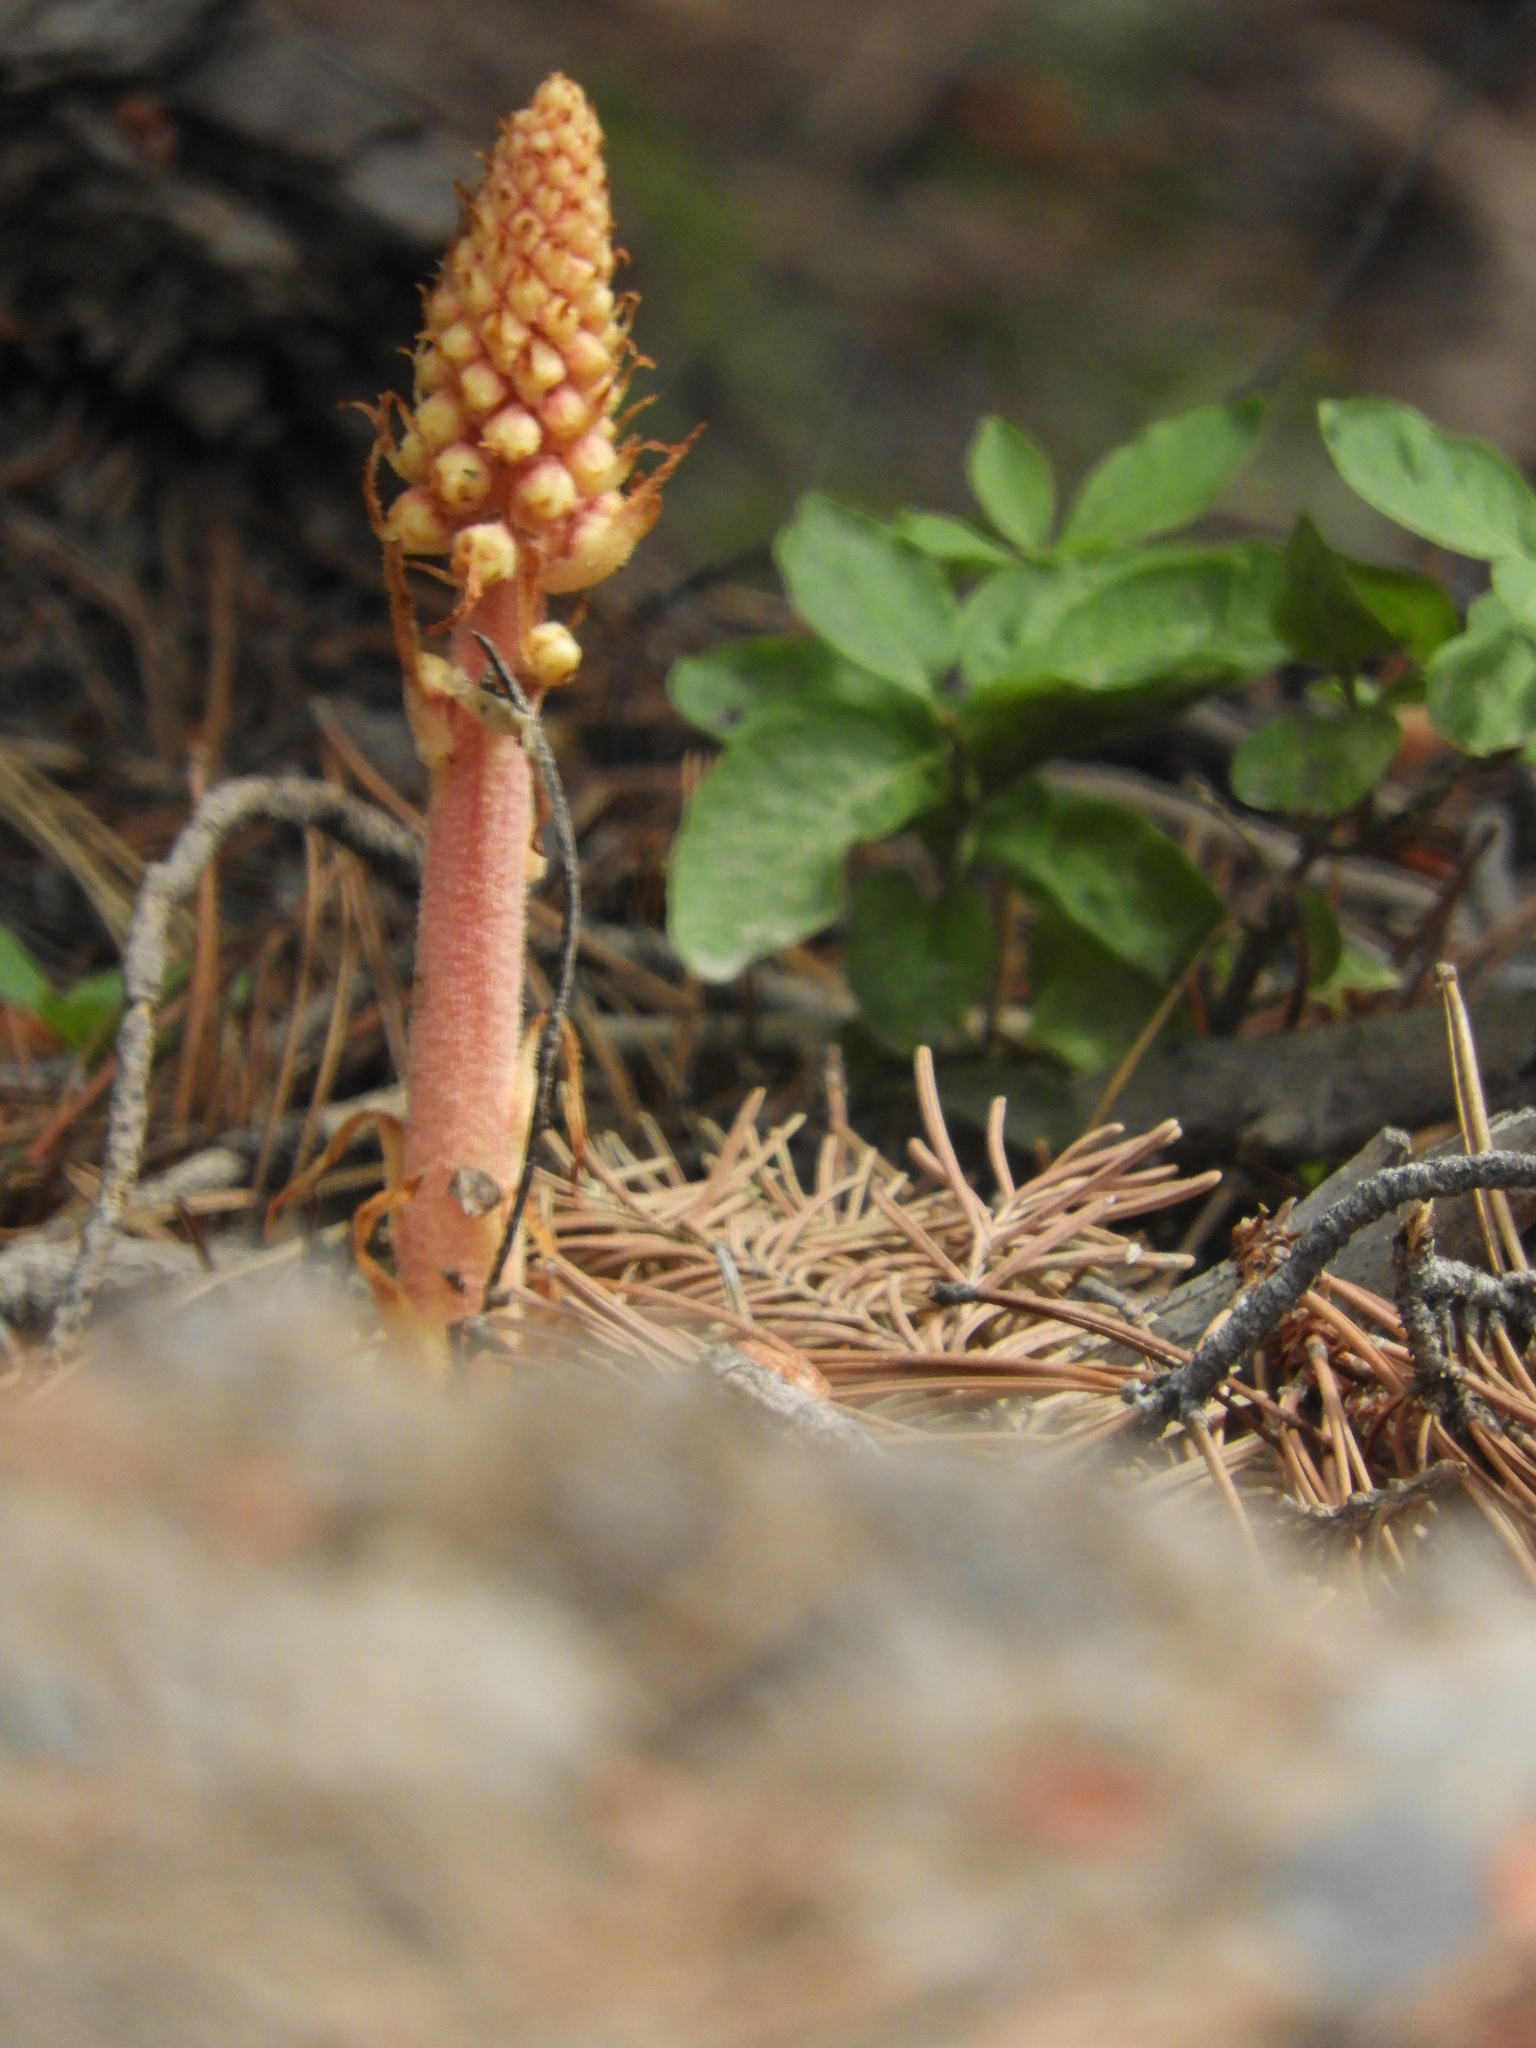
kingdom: Plantae
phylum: Tracheophyta
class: Magnoliopsida
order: Ericales
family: Ericaceae
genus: Pterospora
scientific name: Pterospora andromedea
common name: Giant bird's-nest
